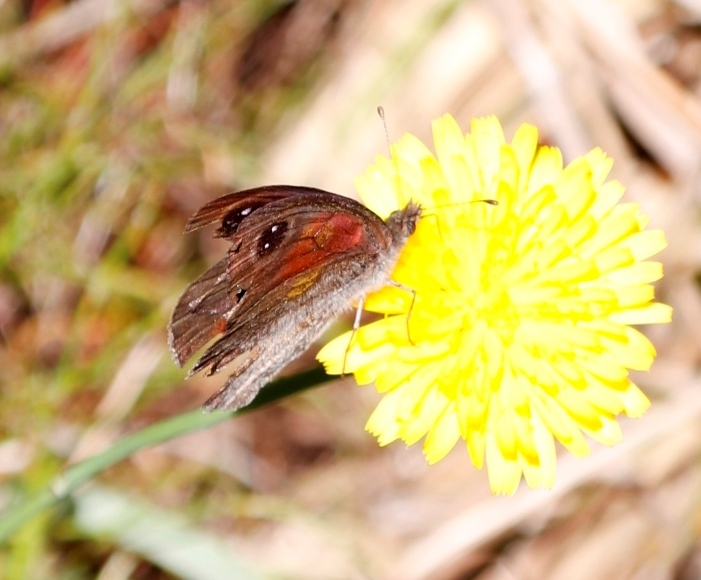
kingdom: Plantae
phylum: Tracheophyta
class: Magnoliopsida
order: Asterales
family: Asteraceae
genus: Hypochaeris
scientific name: Hypochaeris radicata
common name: Flatweed
